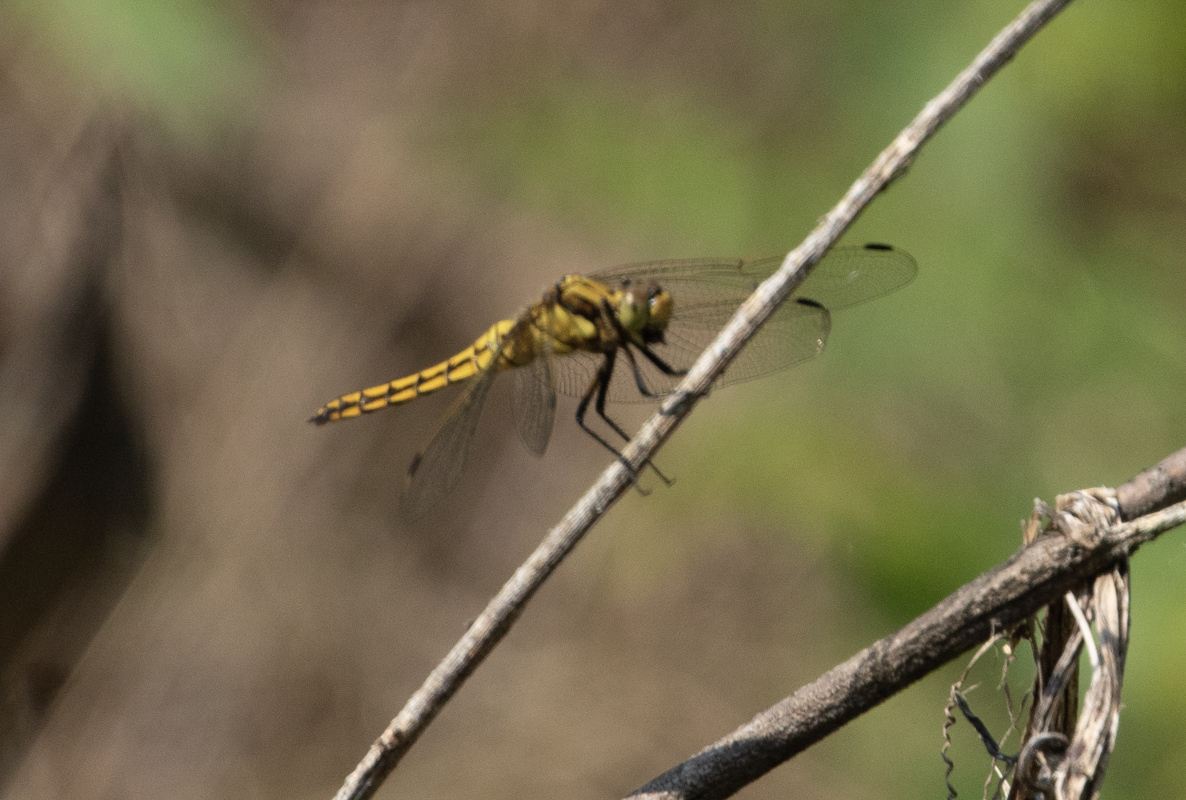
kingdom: Animalia
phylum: Arthropoda
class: Insecta
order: Odonata
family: Libellulidae
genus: Orthetrum
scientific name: Orthetrum cancellatum
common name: Black-tailed skimmer
